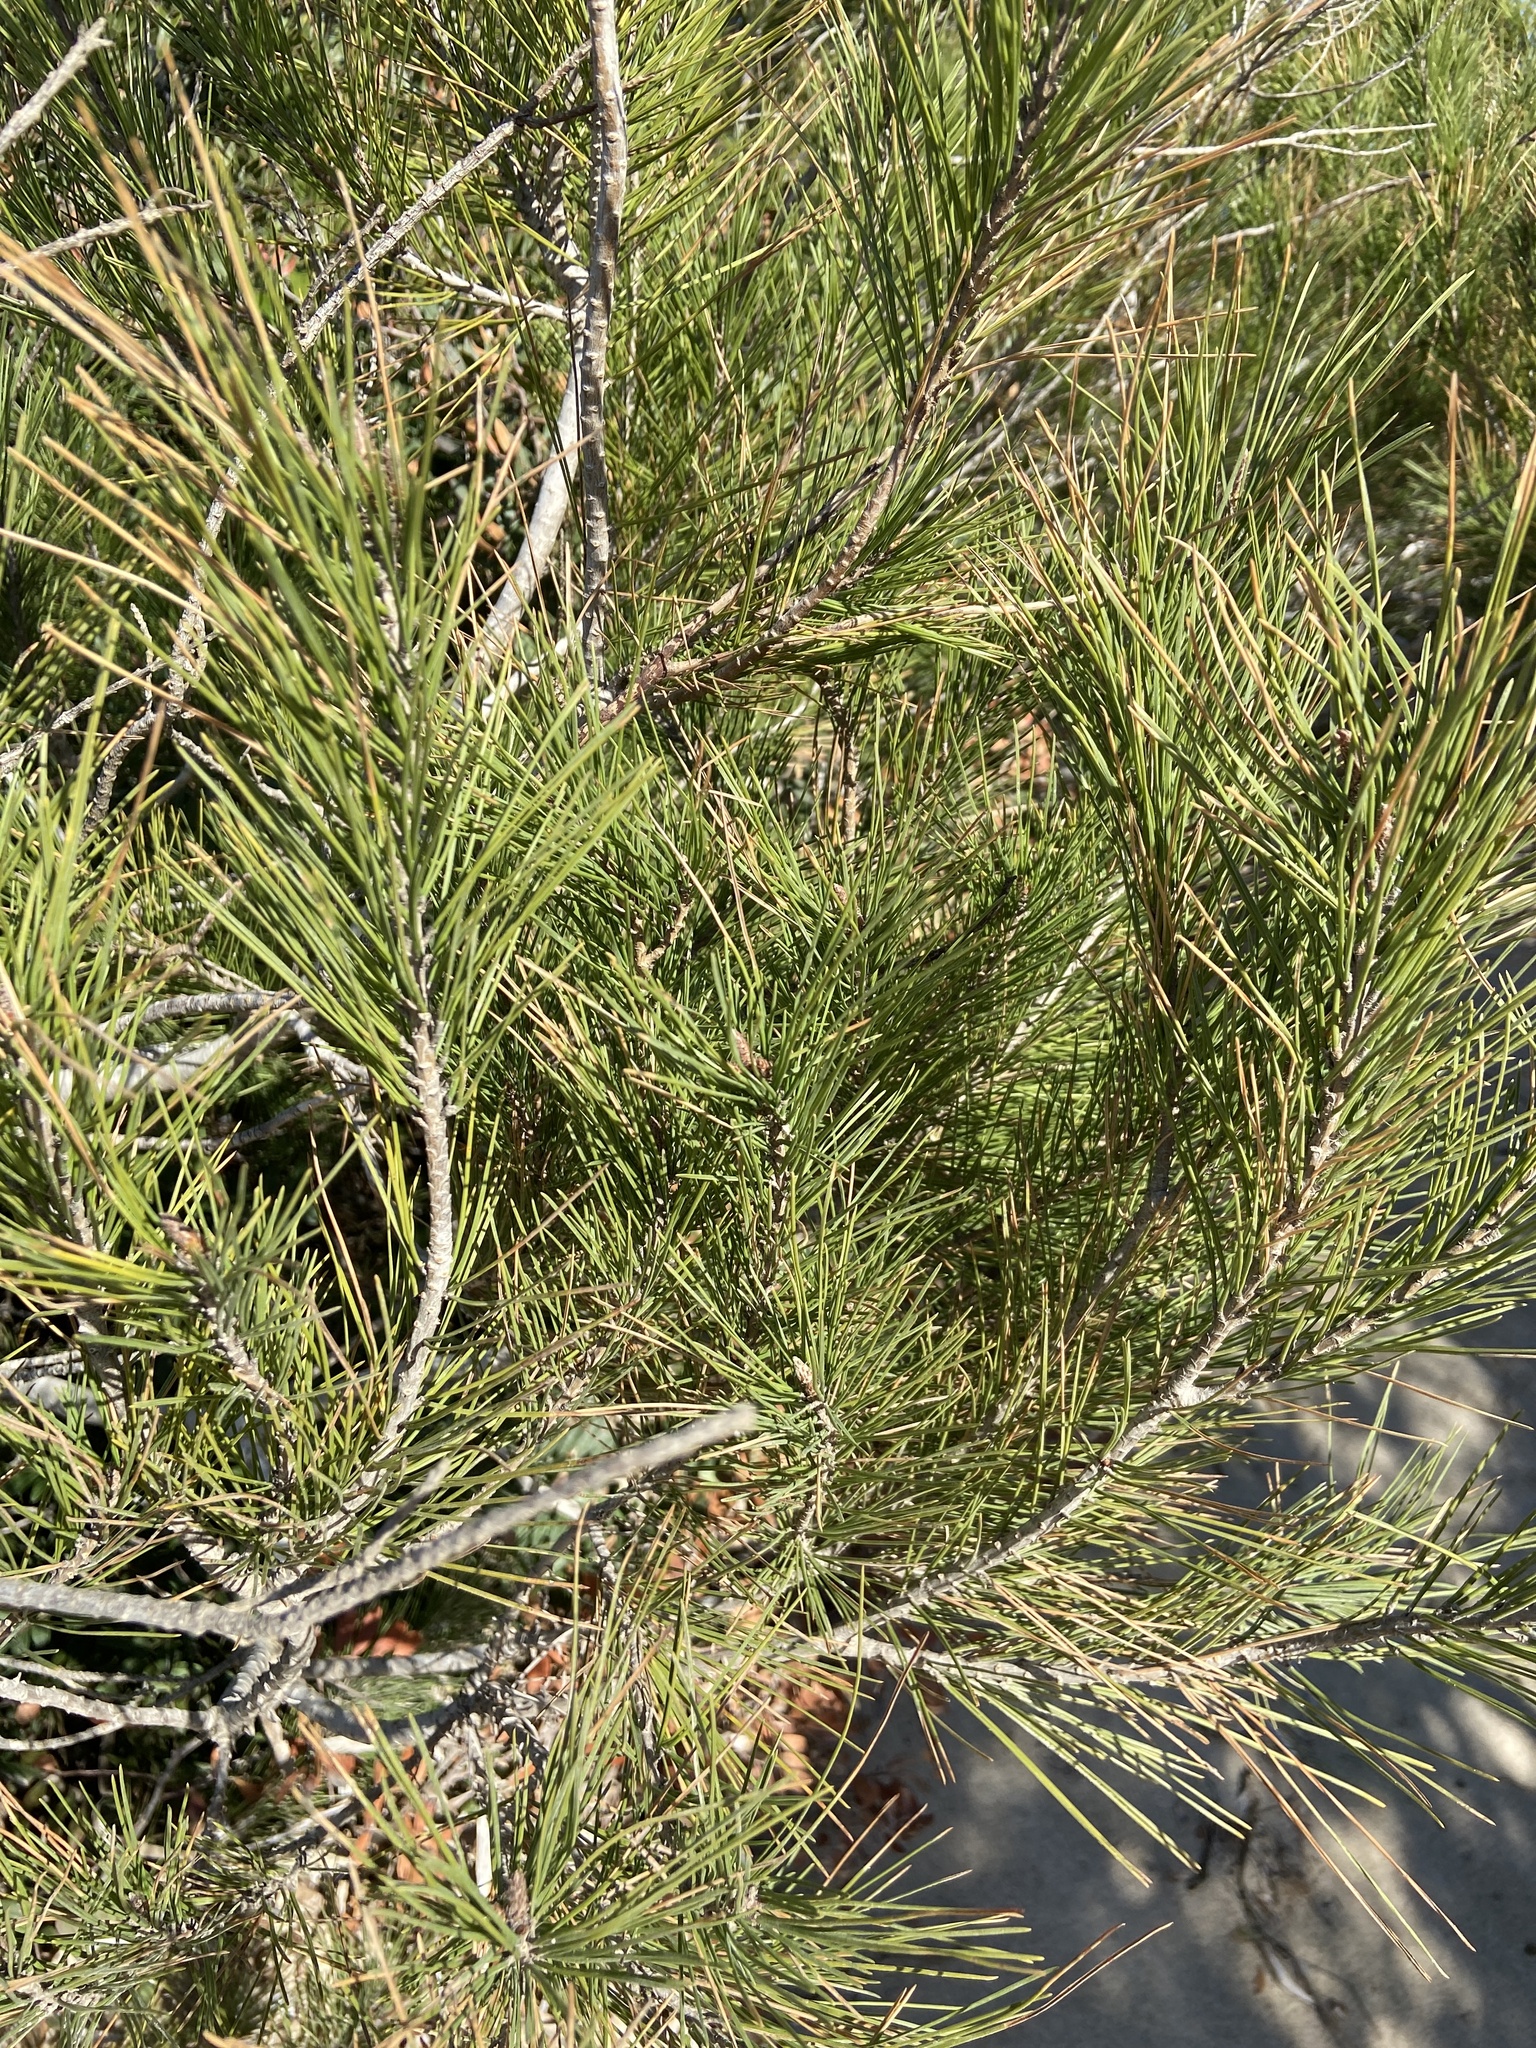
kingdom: Plantae
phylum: Tracheophyta
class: Pinopsida
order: Pinales
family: Pinaceae
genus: Pinus
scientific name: Pinus halepensis
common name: Aleppo pine
